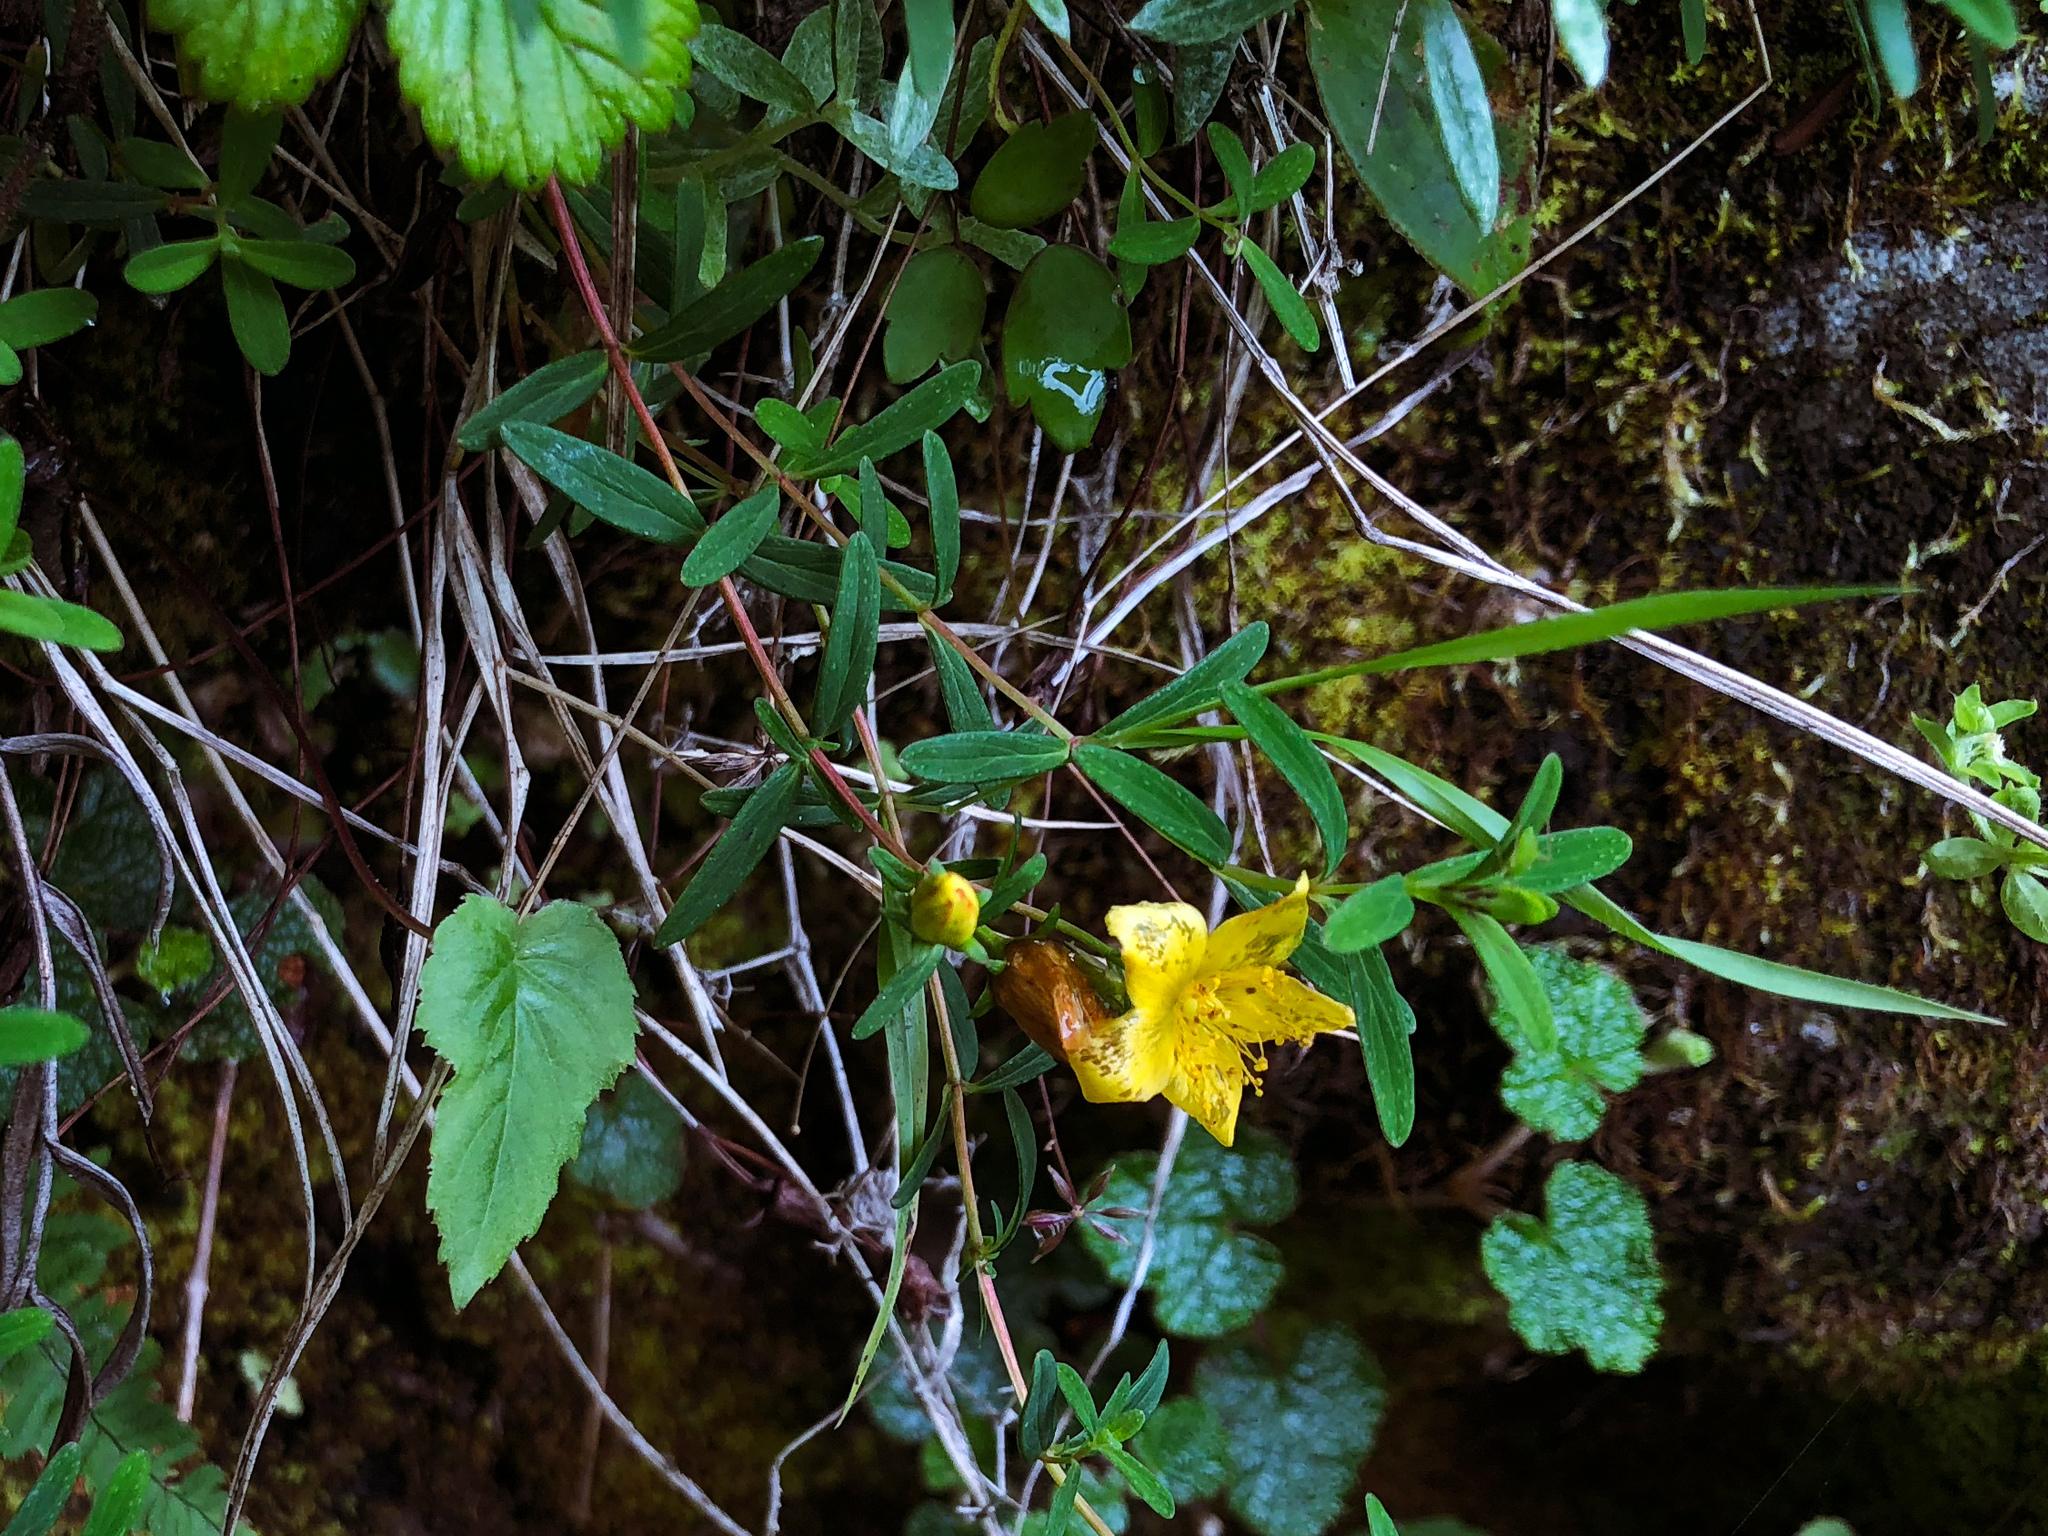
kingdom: Plantae
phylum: Tracheophyta
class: Magnoliopsida
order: Malpighiales
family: Hypericaceae
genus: Hypericum
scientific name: Hypericum nagasawae
